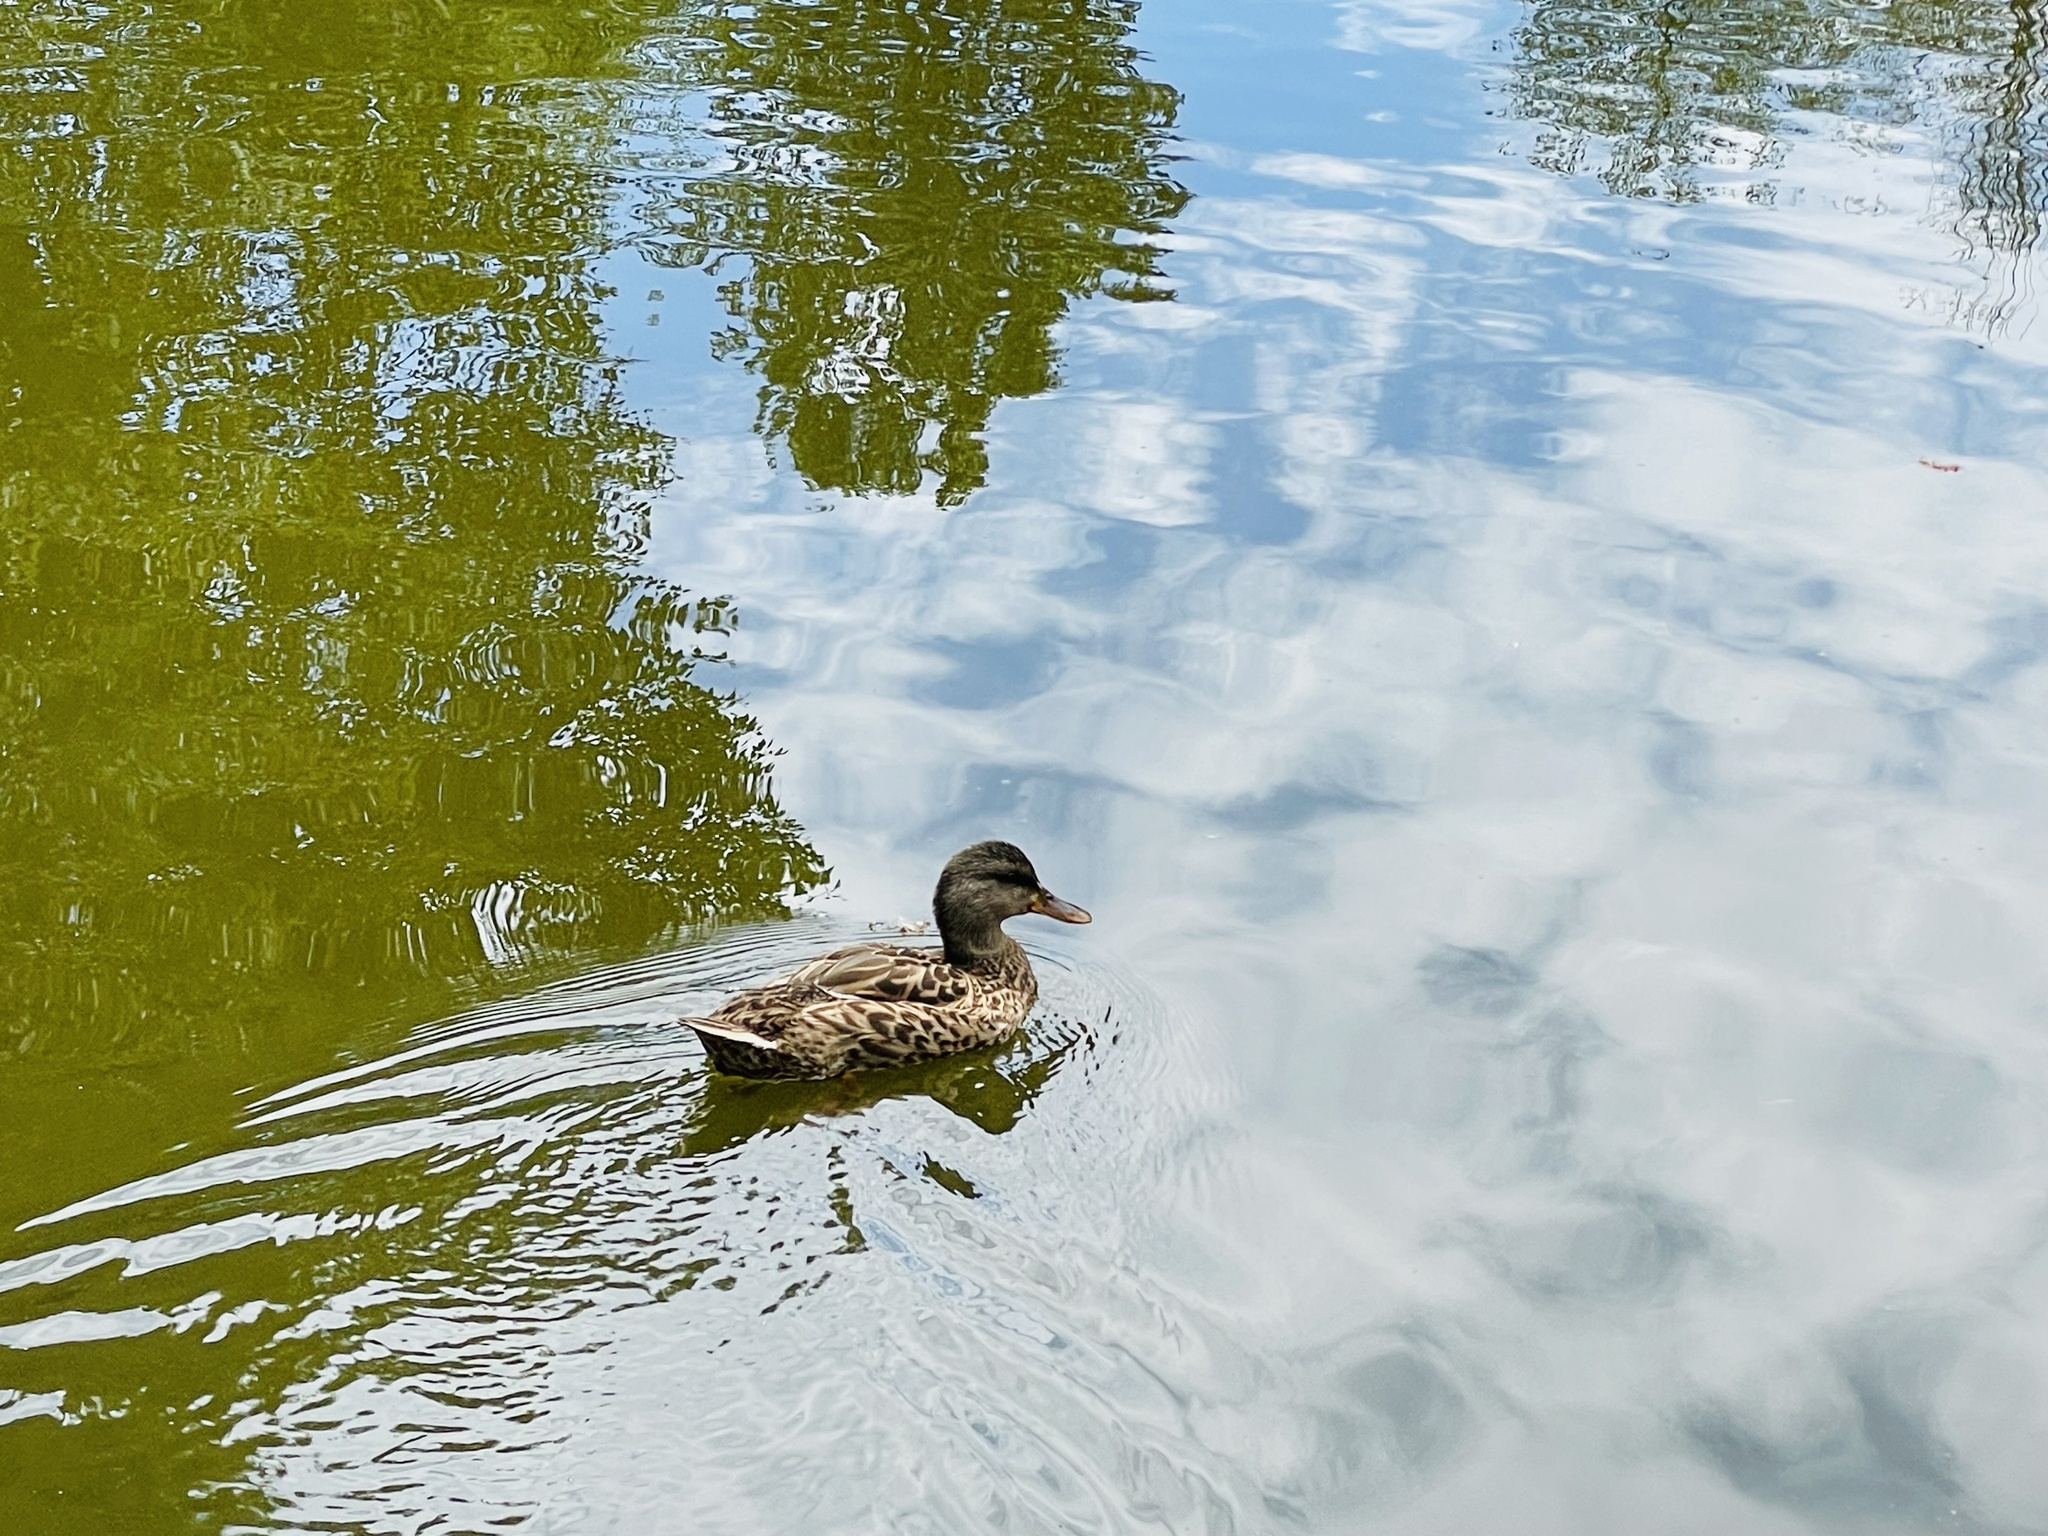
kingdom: Animalia
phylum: Chordata
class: Aves
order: Anseriformes
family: Anatidae
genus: Anas
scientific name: Anas platyrhynchos
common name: Mallard
